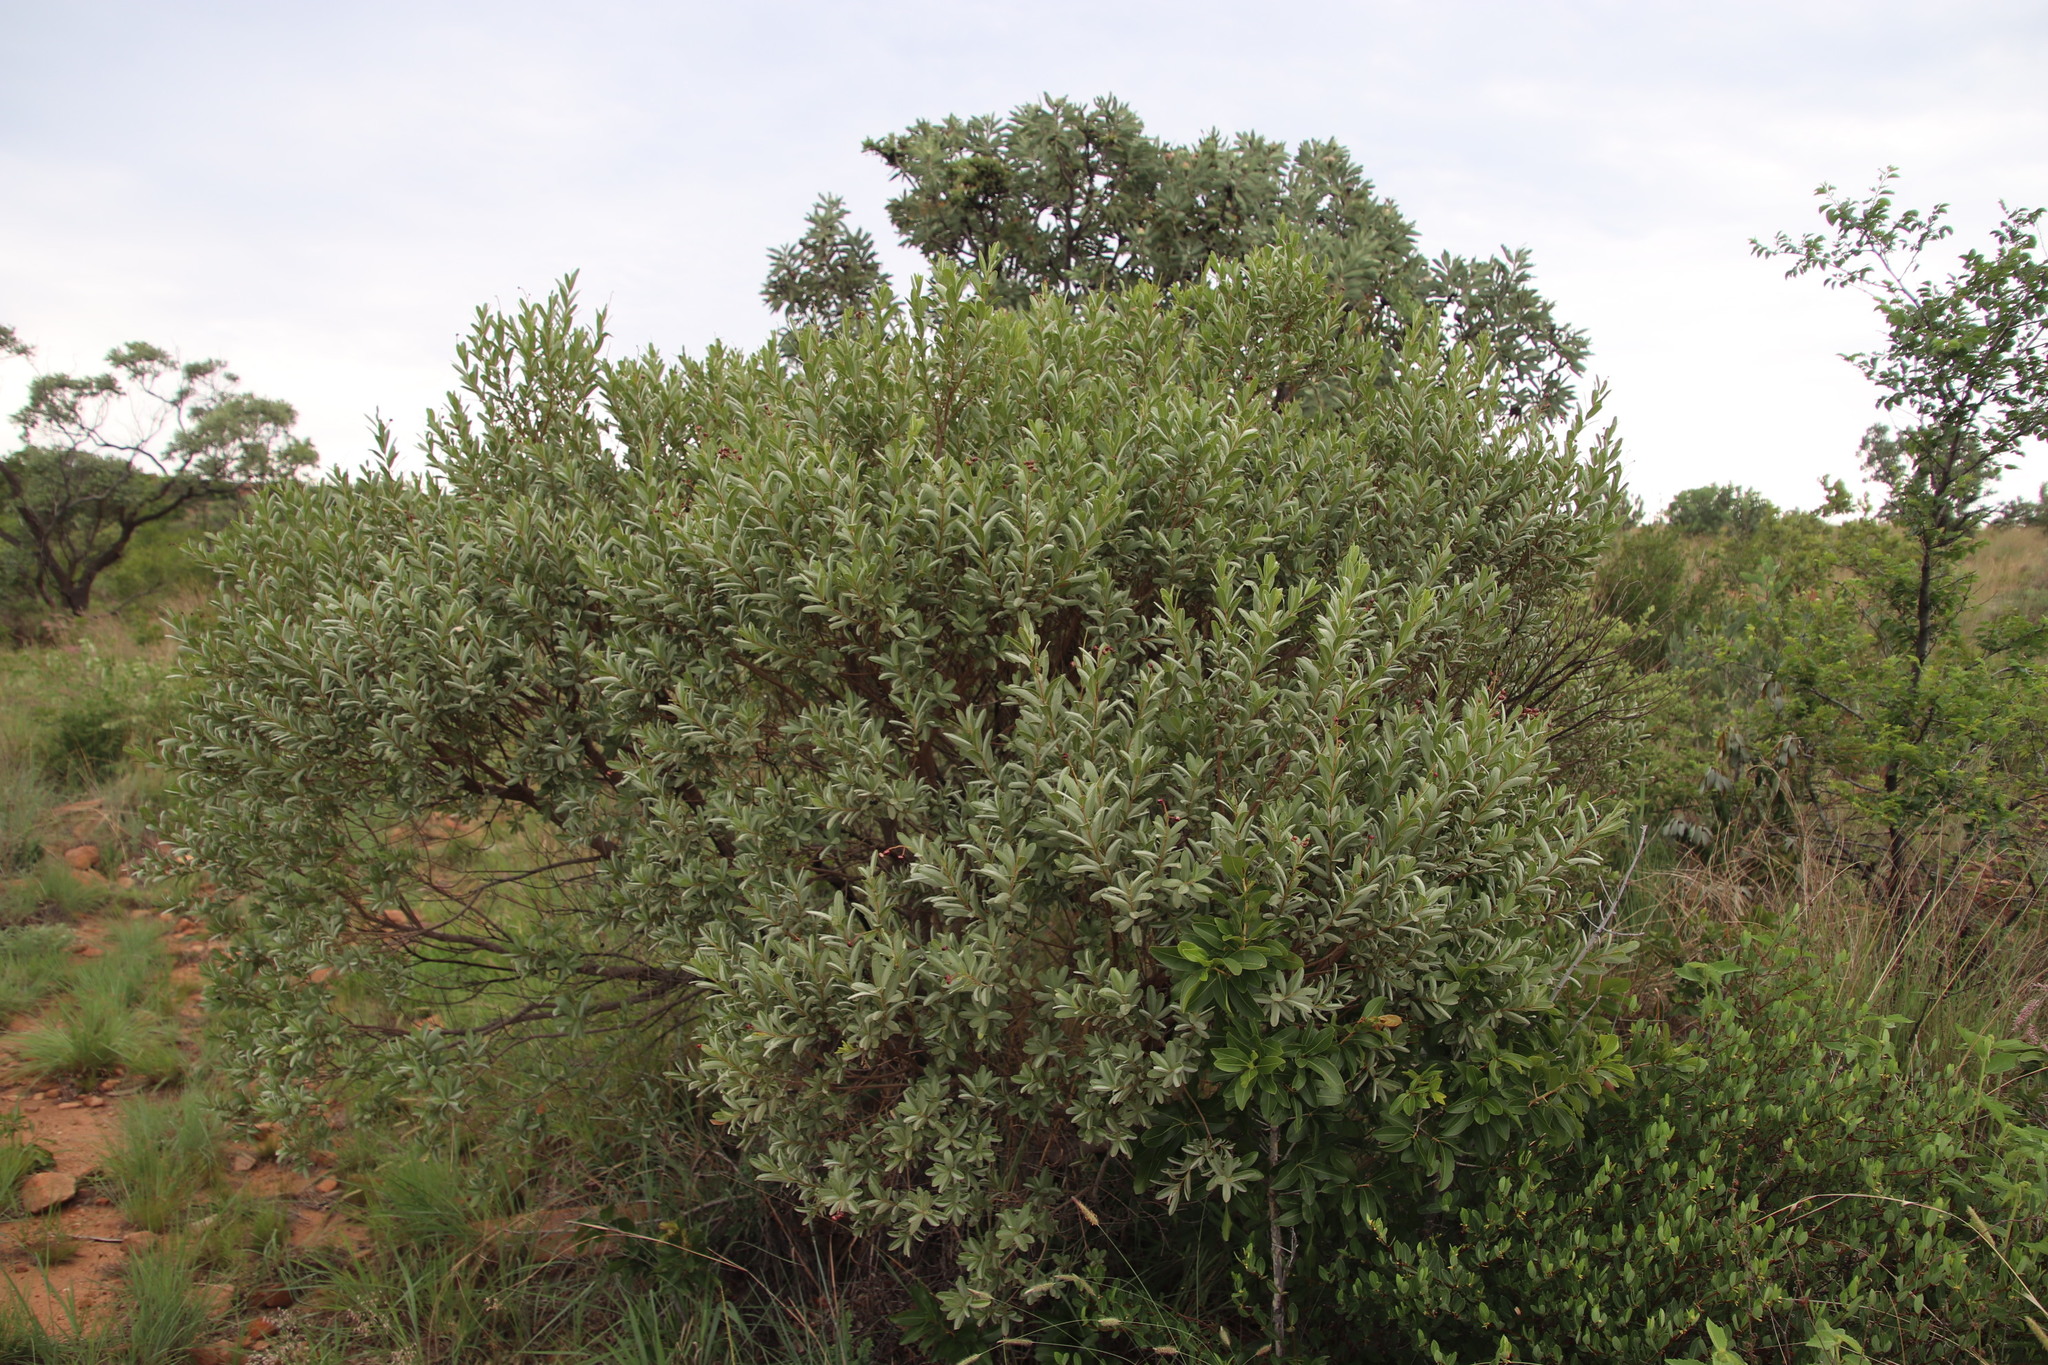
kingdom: Plantae
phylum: Tracheophyta
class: Magnoliopsida
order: Sapindales
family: Anacardiaceae
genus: Ozoroa
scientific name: Ozoroa paniculosa
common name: Bushveld ozoroa
